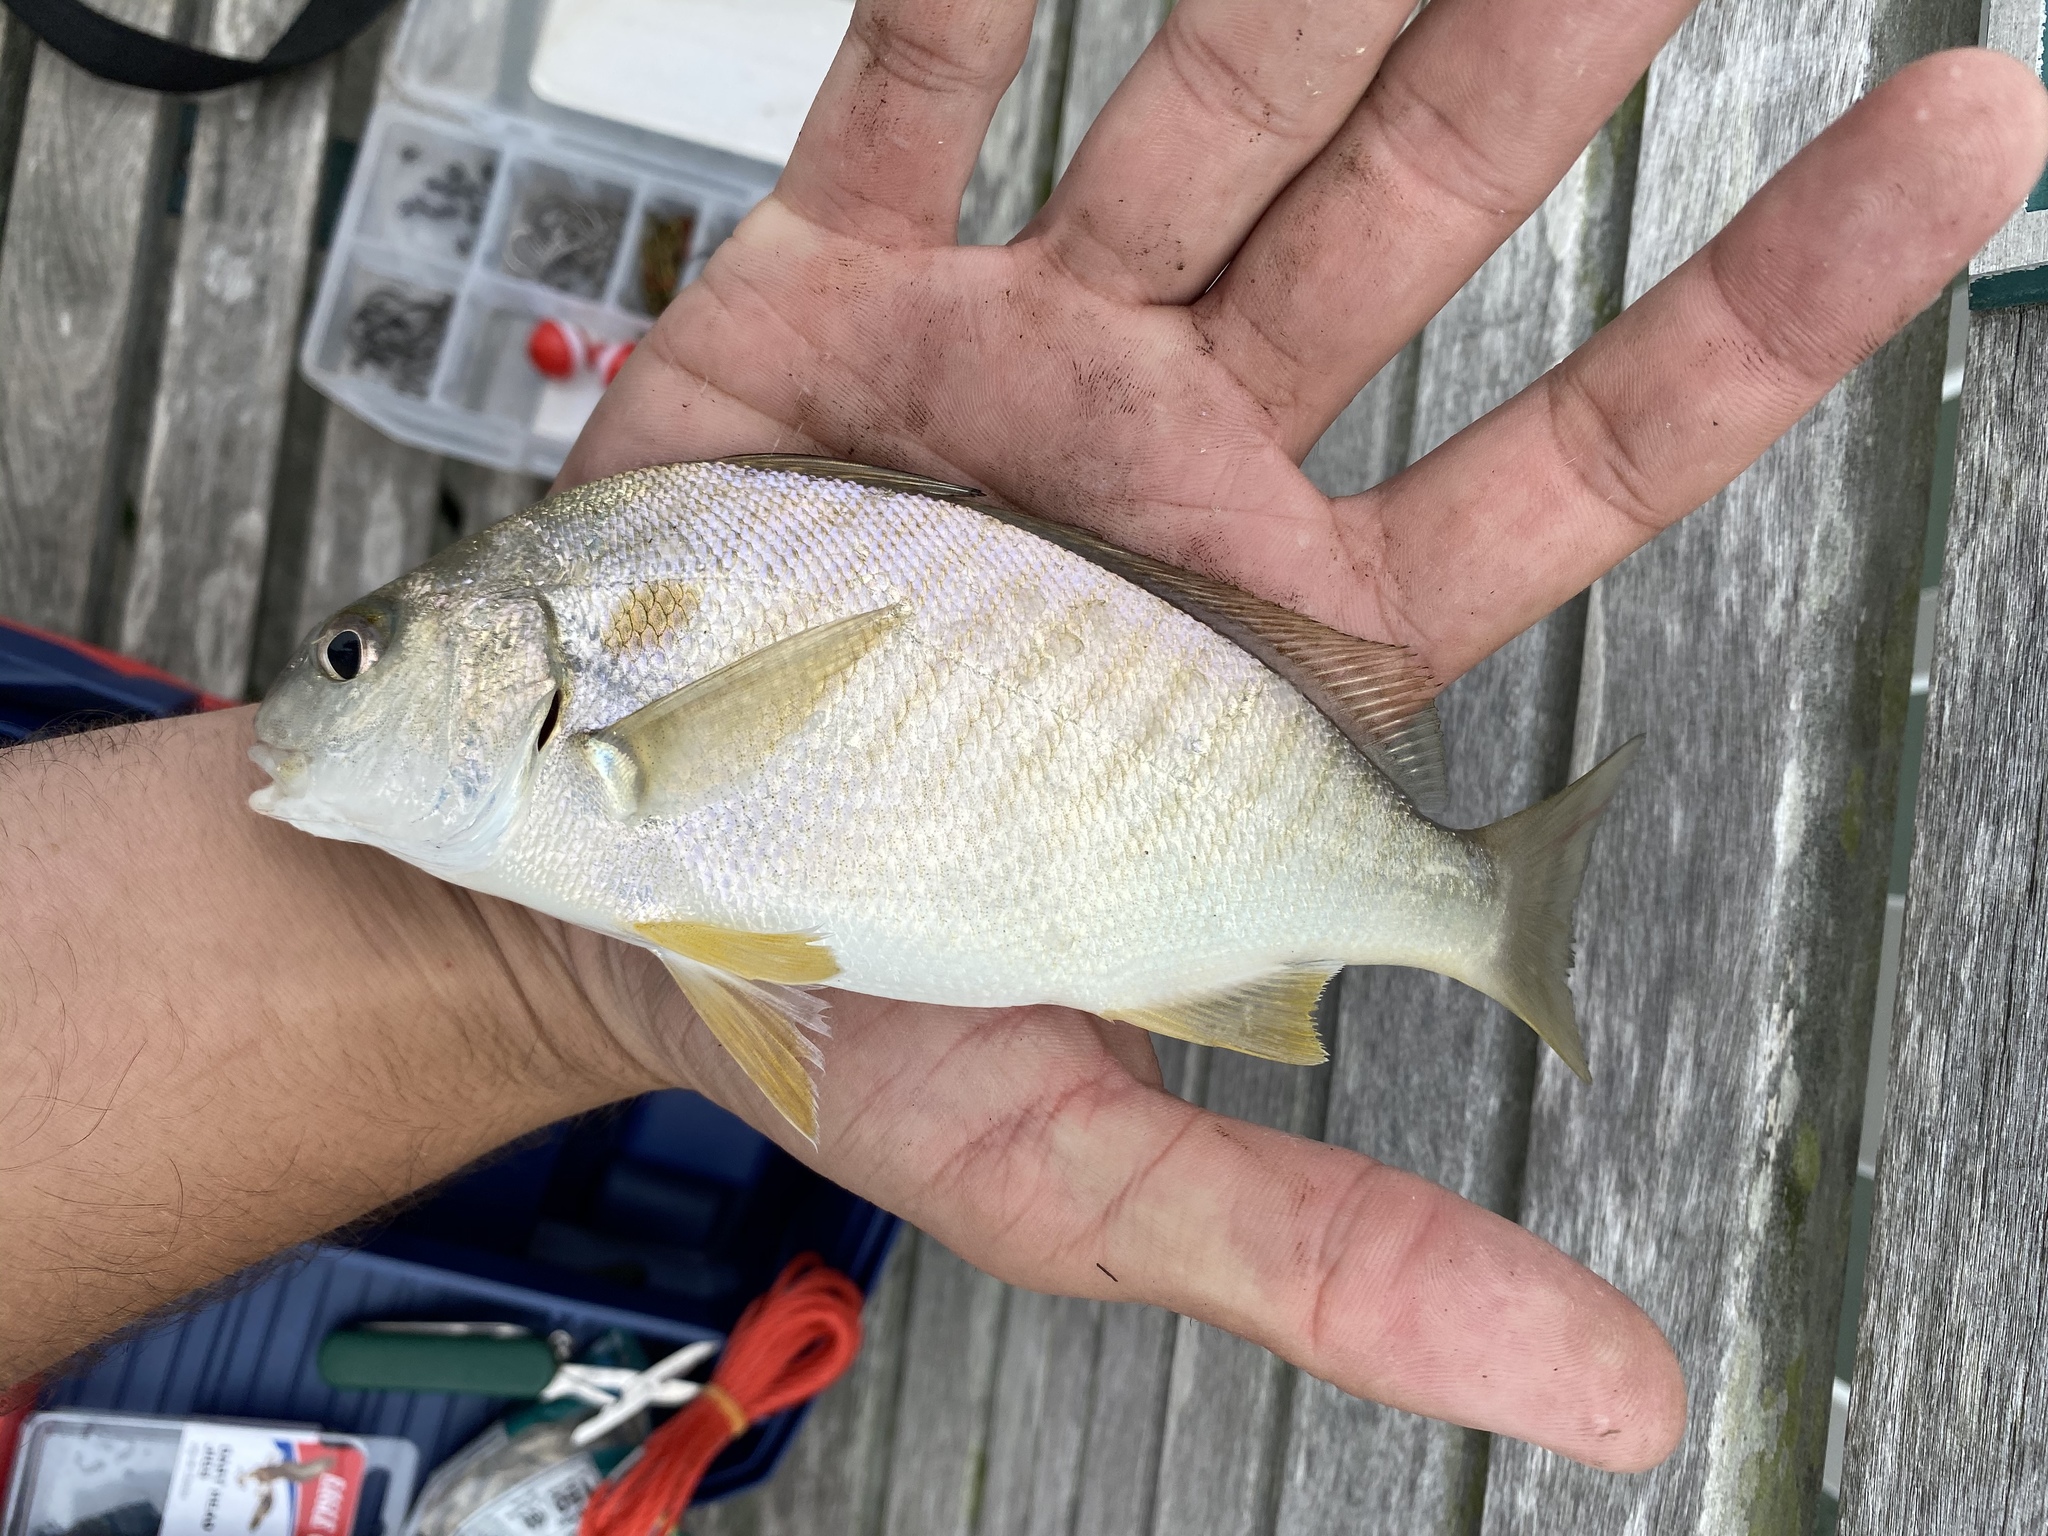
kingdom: Animalia
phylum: Chordata
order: Perciformes
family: Sciaenidae
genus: Leiostomus
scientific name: Leiostomus xanthurus
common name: Spot
